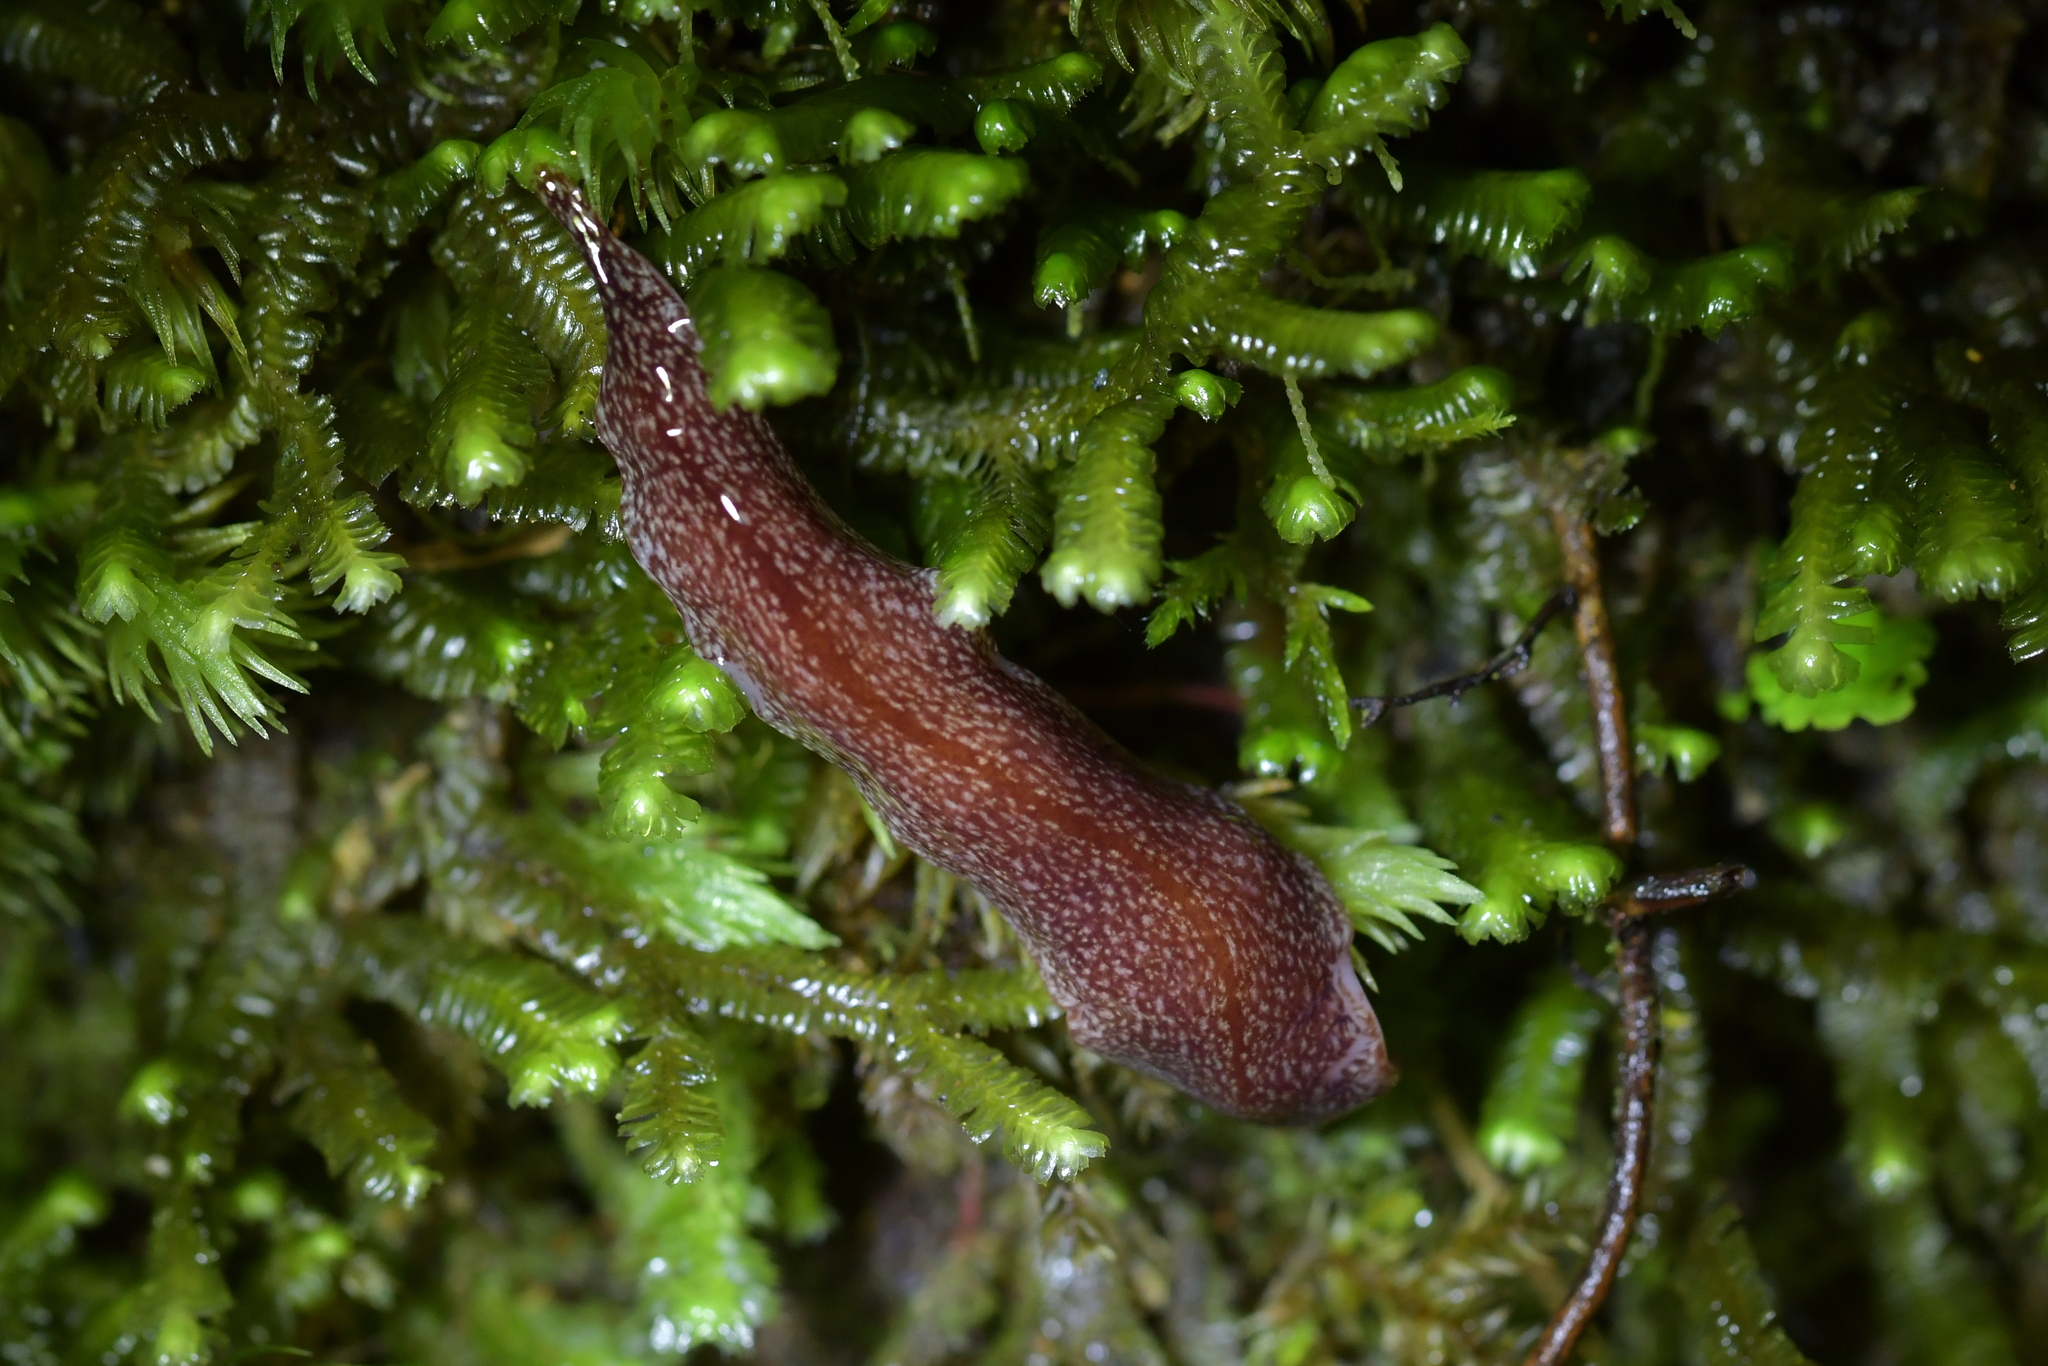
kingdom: Animalia
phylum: Platyhelminthes
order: Tricladida
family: Geoplanidae
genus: Australopacifica
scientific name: Australopacifica spectabilis
